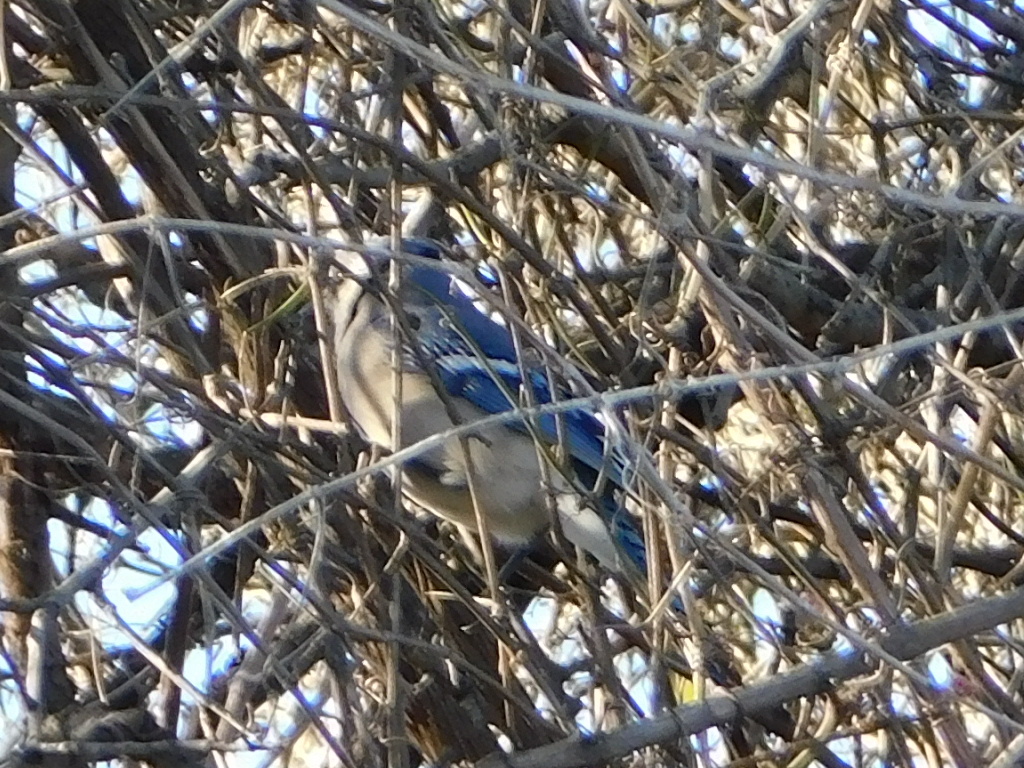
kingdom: Animalia
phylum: Chordata
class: Aves
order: Passeriformes
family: Corvidae
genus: Cyanocitta
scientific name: Cyanocitta cristata
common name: Blue jay
